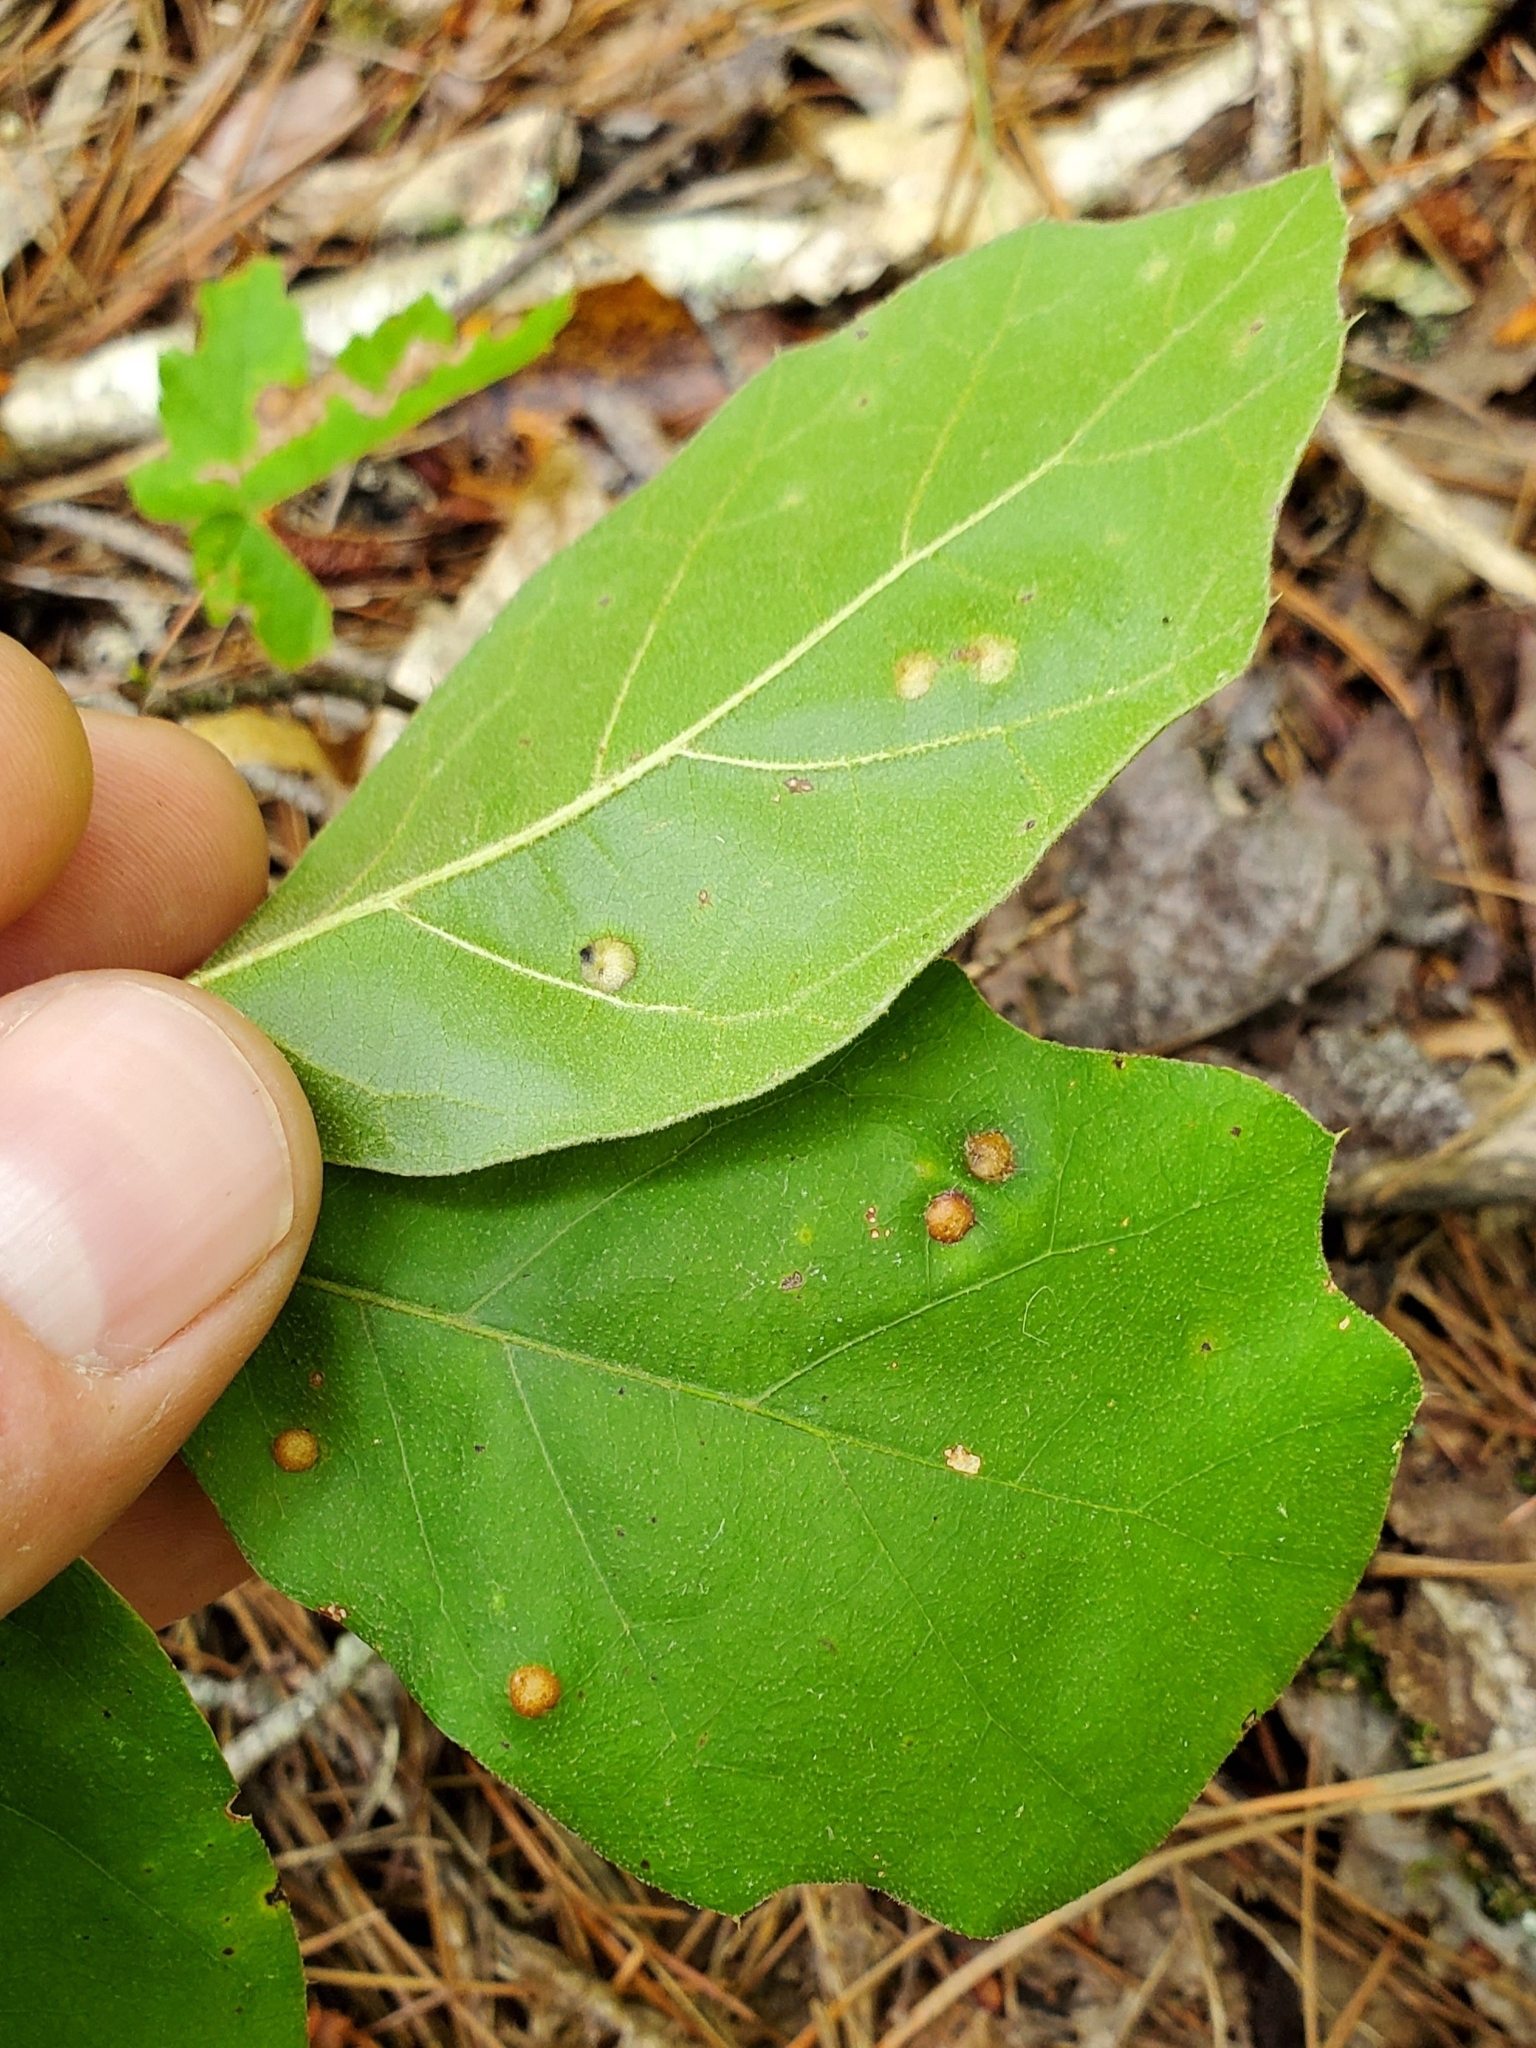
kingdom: Animalia
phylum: Arthropoda
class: Insecta
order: Diptera
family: Cecidomyiidae
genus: Polystepha
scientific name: Polystepha pilulae
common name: Oak leaf gall midge
